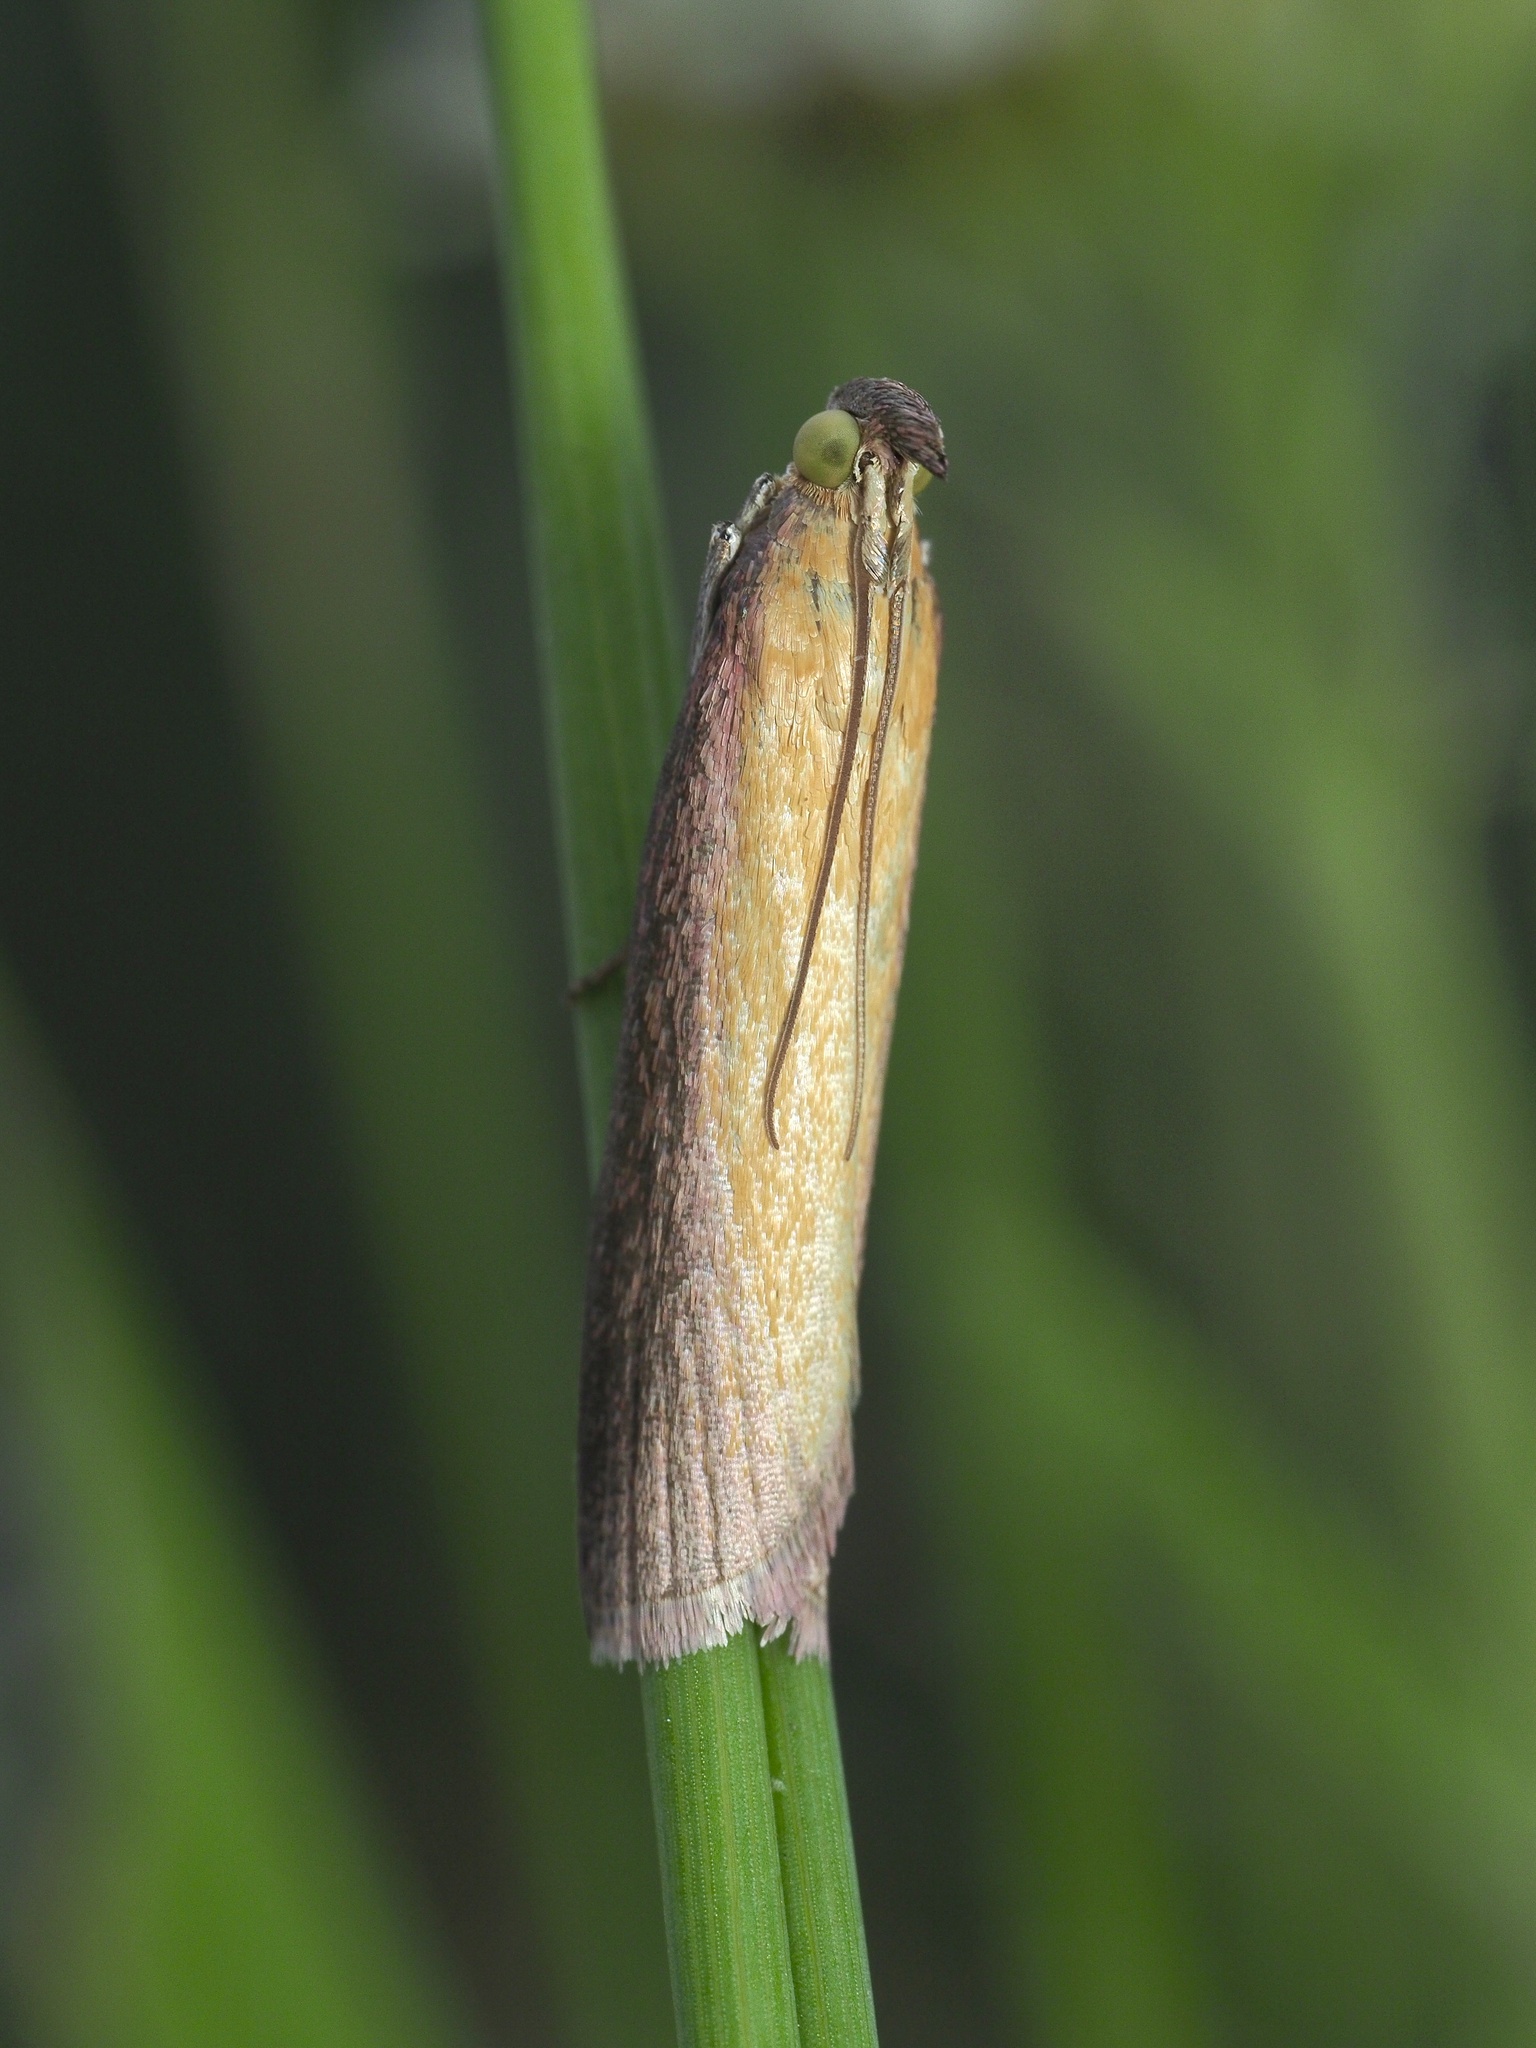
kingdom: Animalia
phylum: Arthropoda
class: Insecta
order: Lepidoptera
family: Pyralidae
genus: Oncocera
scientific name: Oncocera semirubella
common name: Rosy-striped knot-horn
